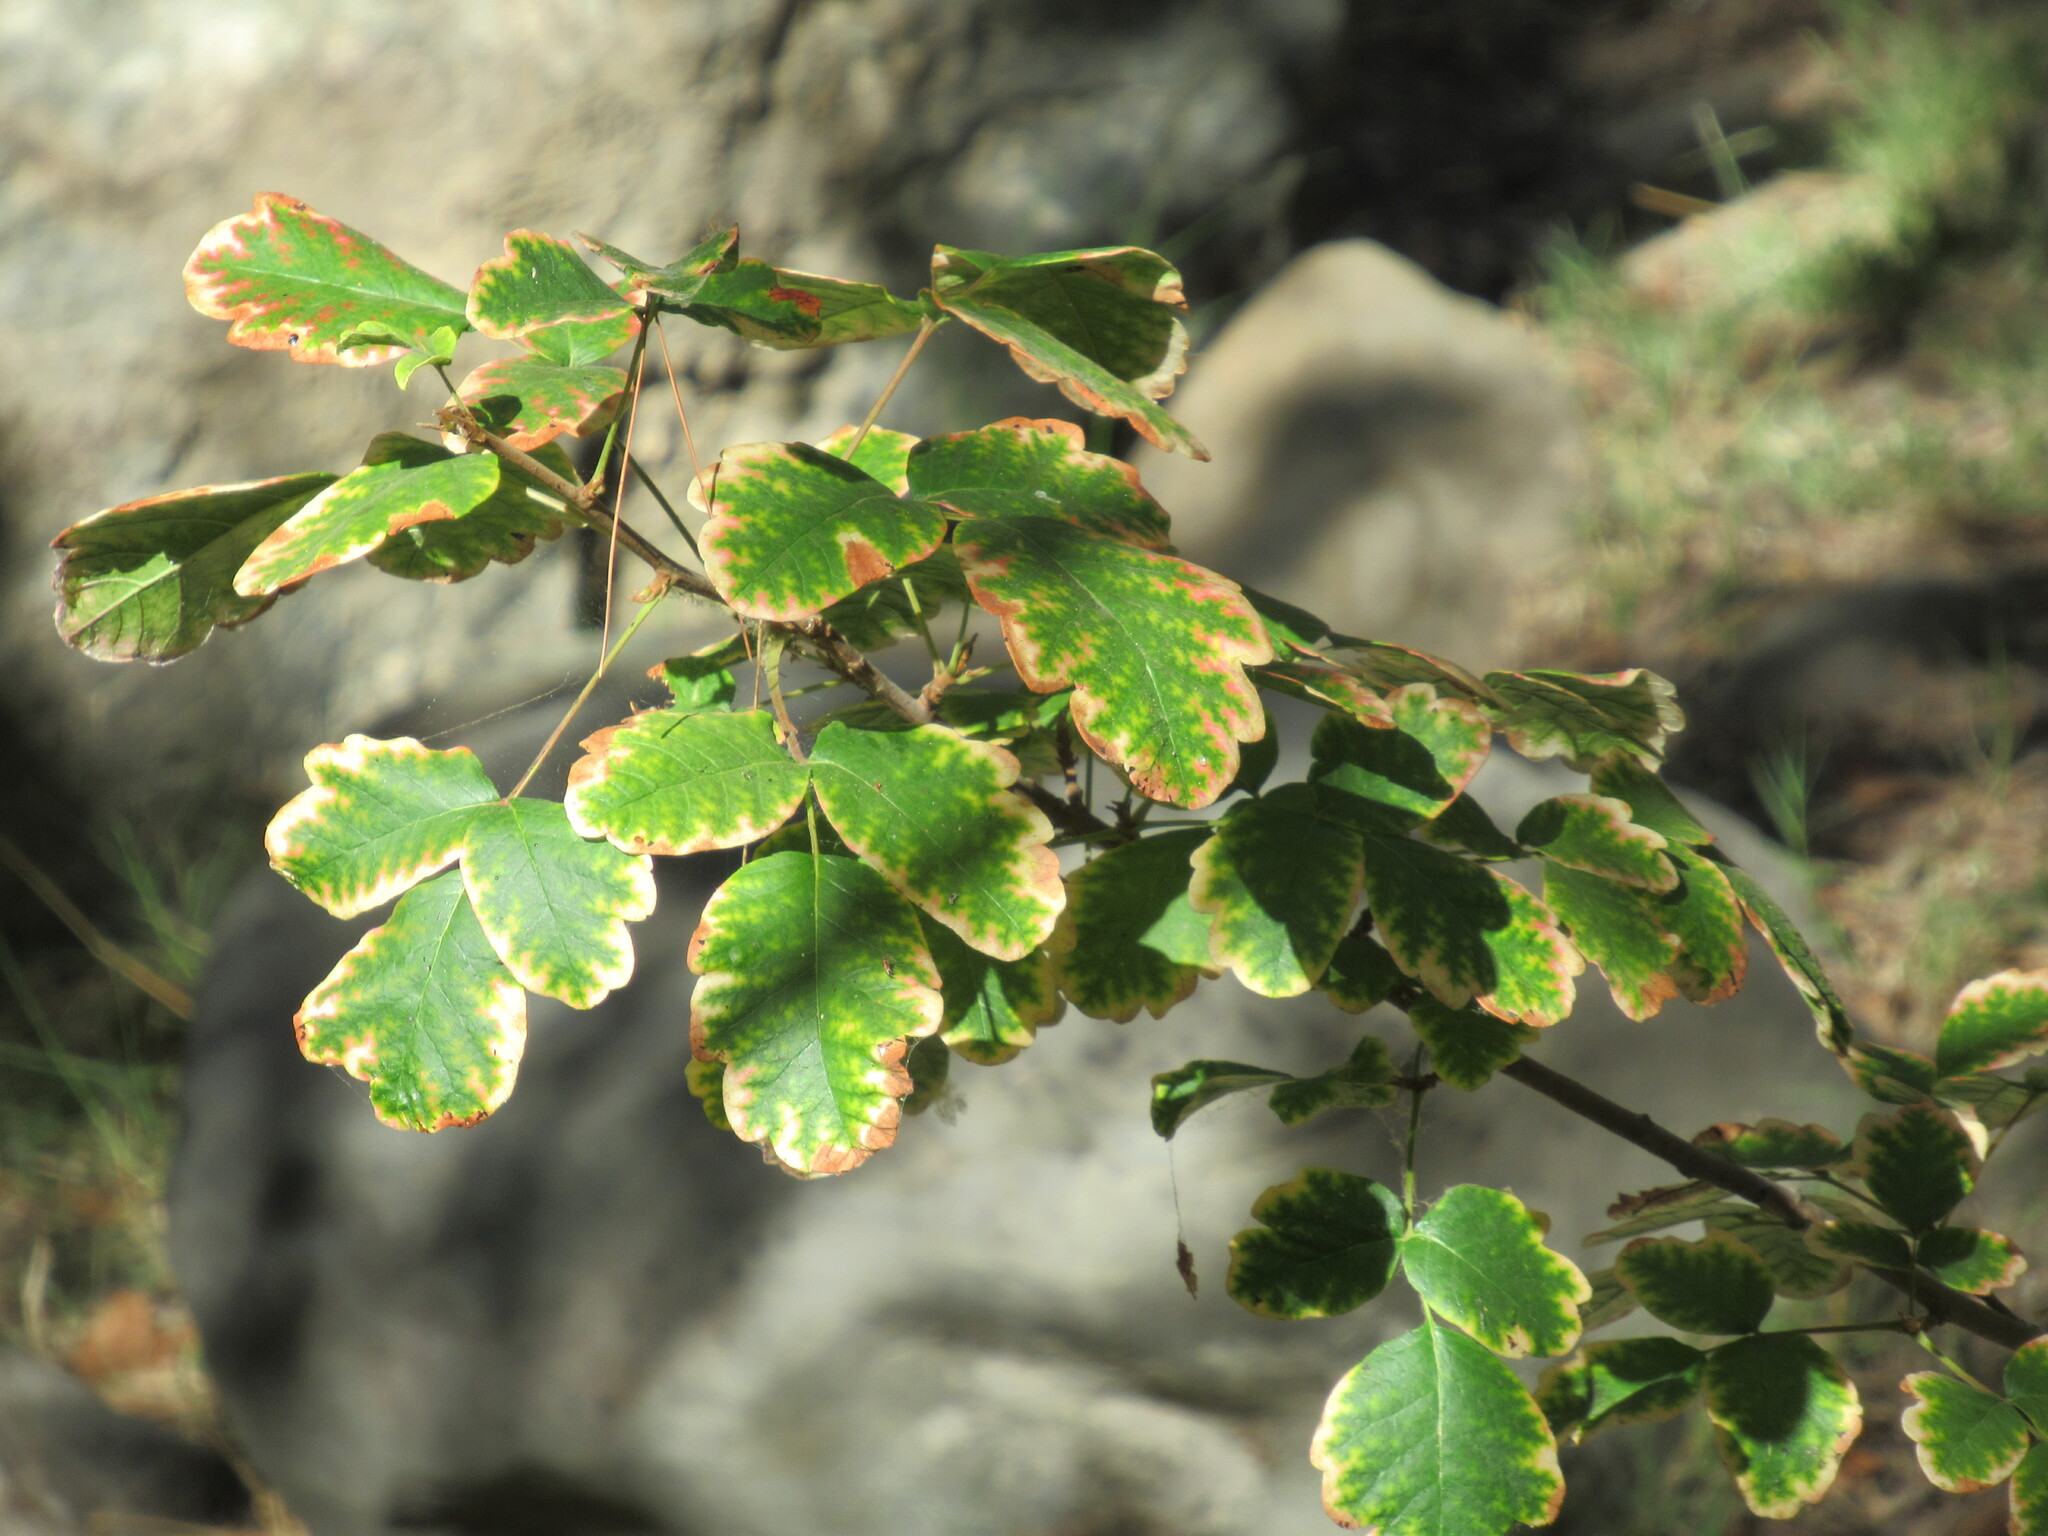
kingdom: Plantae
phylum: Tracheophyta
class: Magnoliopsida
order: Sapindales
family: Anacardiaceae
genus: Toxicodendron
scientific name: Toxicodendron diversilobum
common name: Pacific poison-oak
